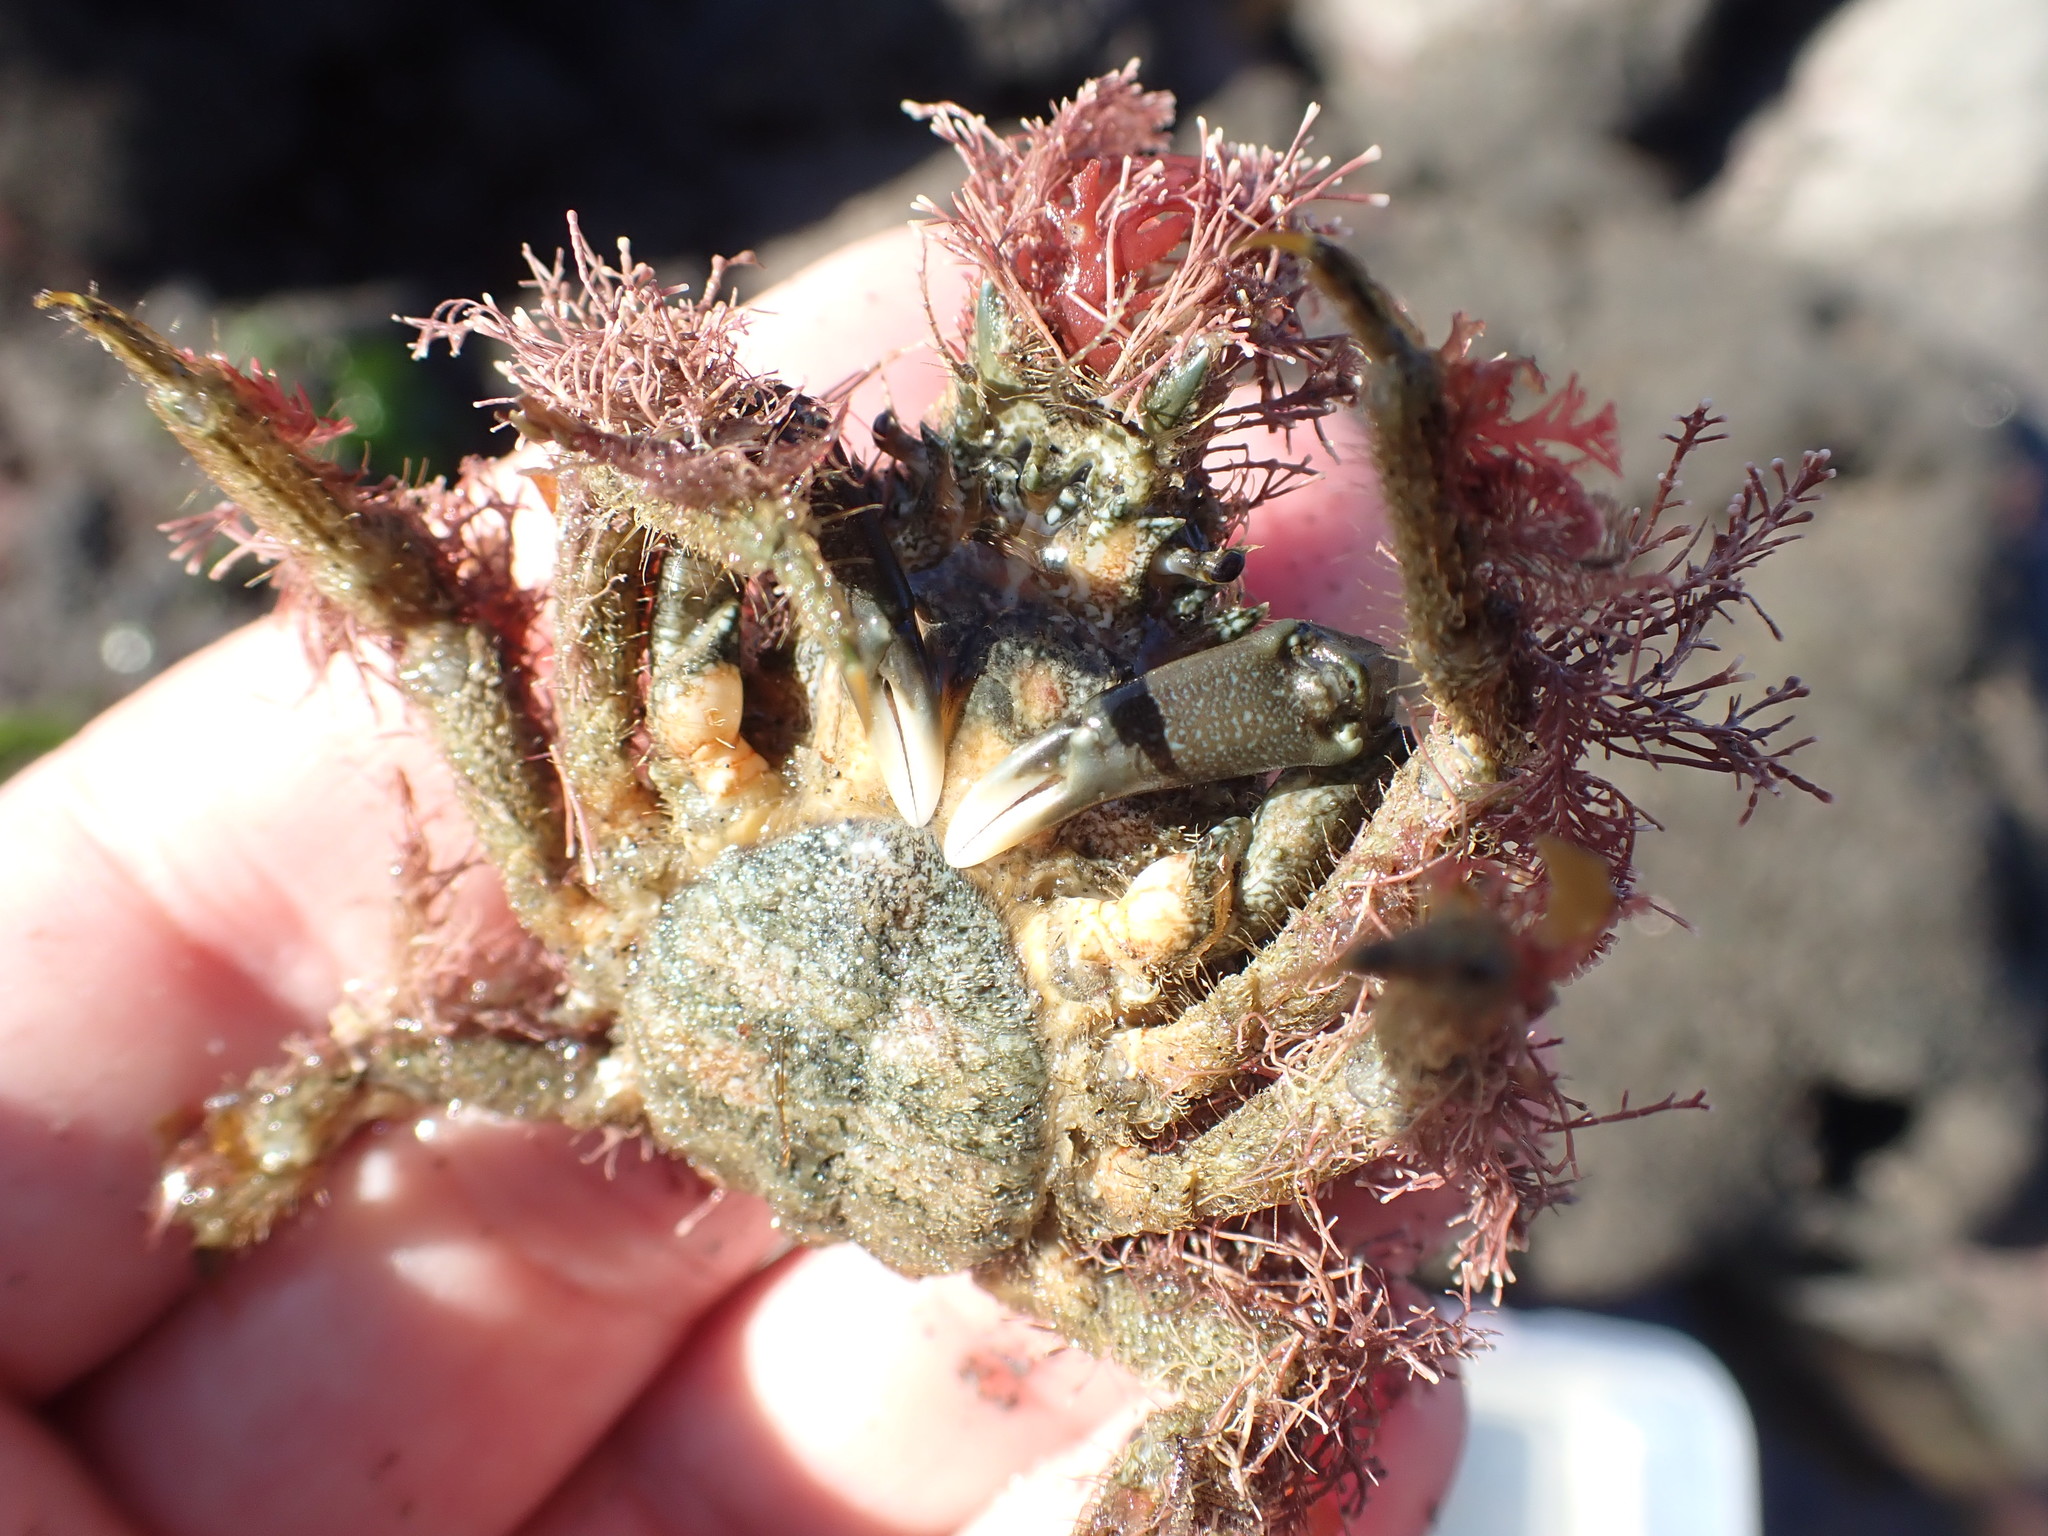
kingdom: Animalia
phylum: Arthropoda
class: Malacostraca
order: Decapoda
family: Majidae
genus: Notomithrax
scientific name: Notomithrax peronii
